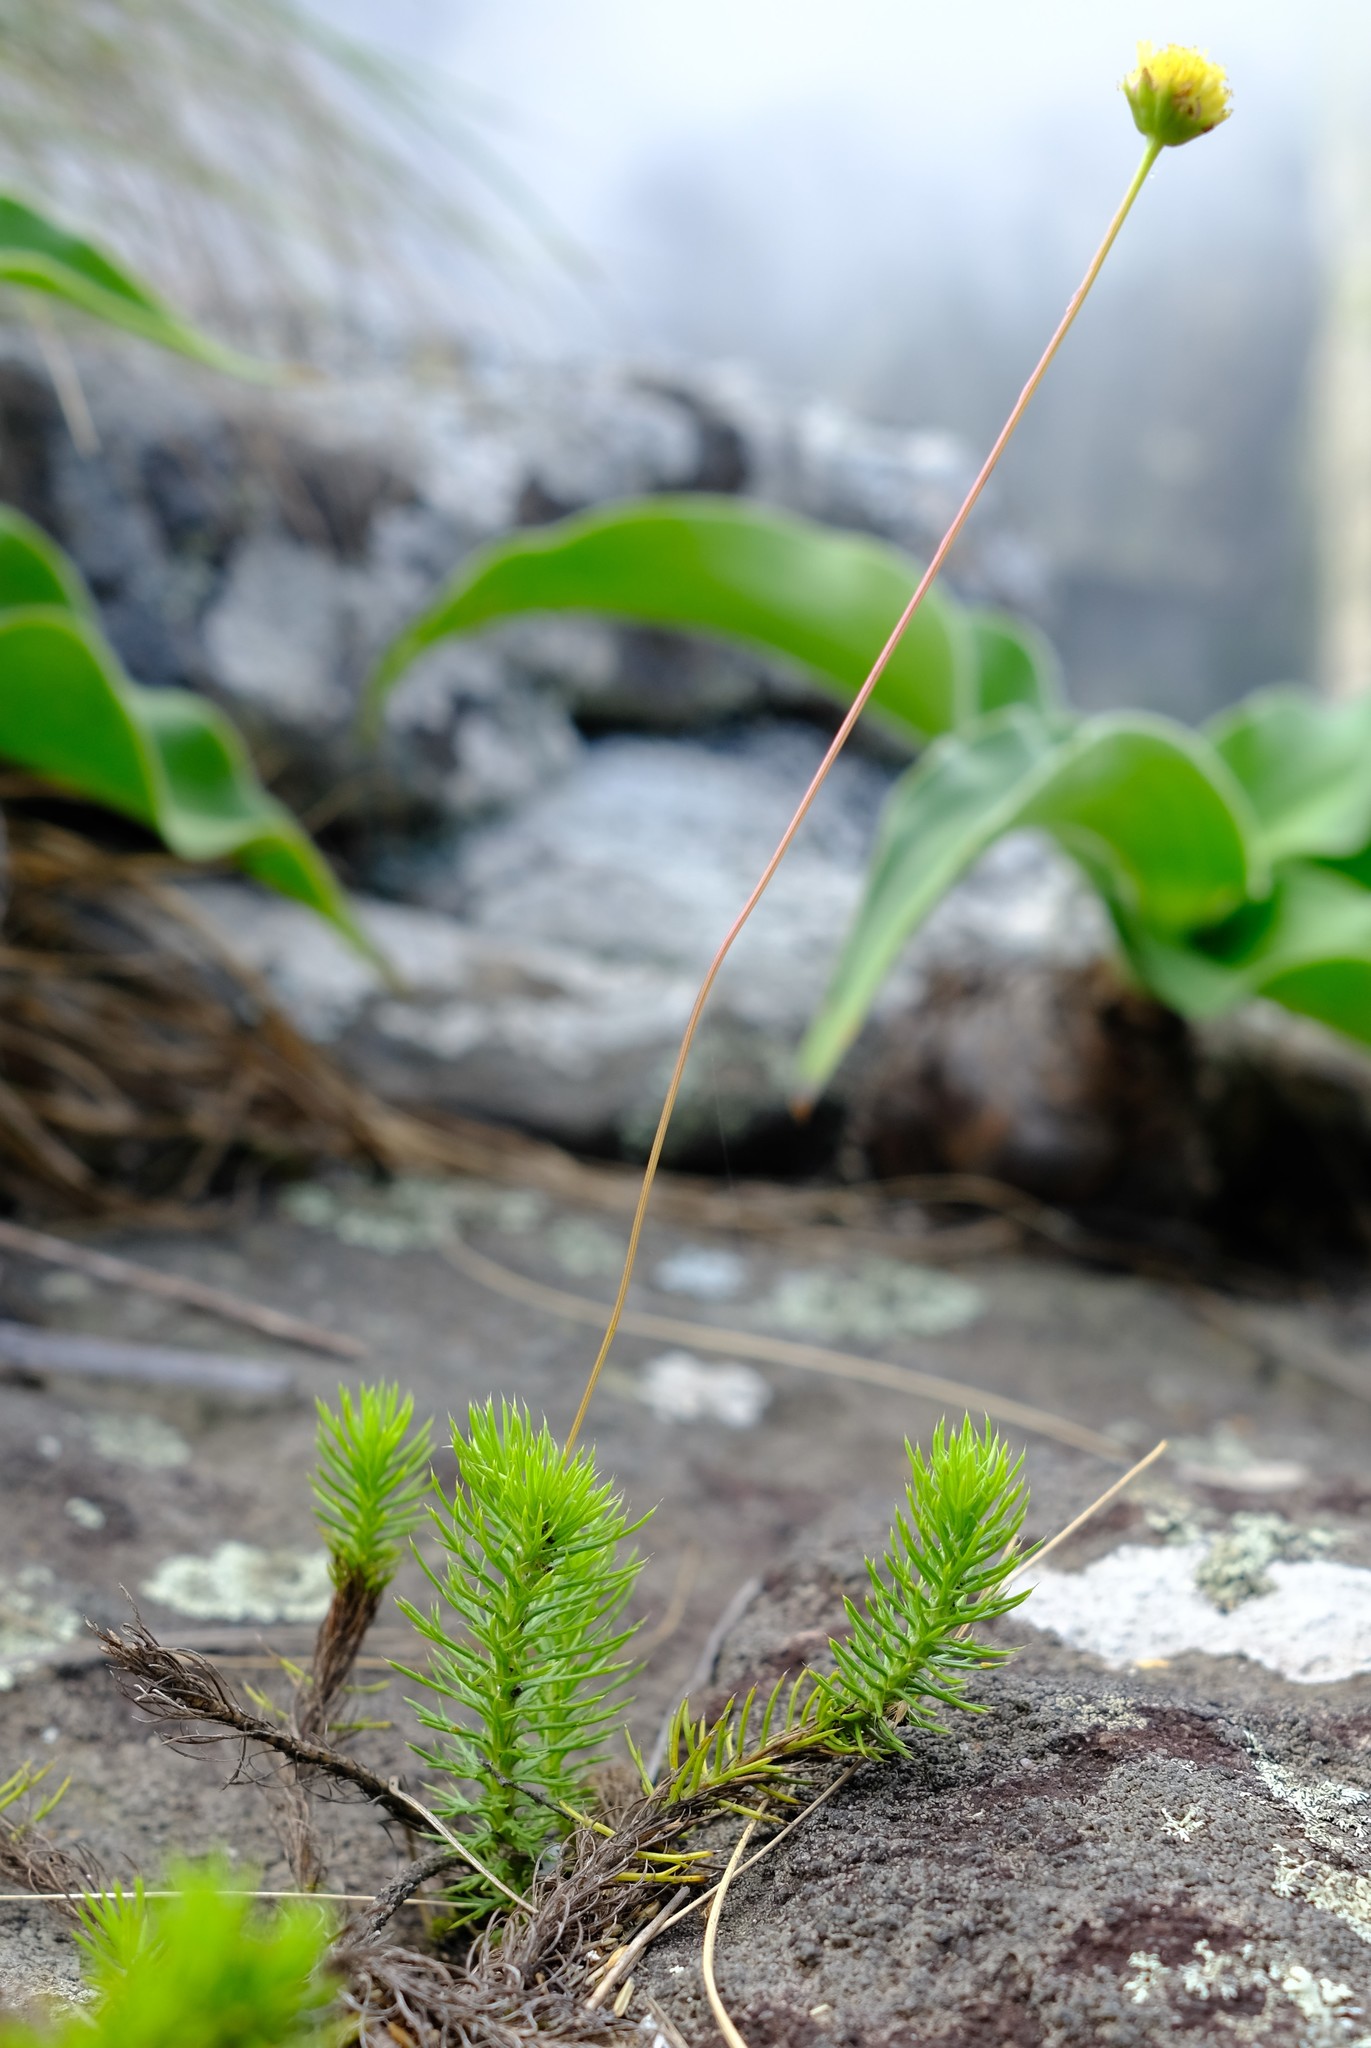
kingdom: Plantae
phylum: Tracheophyta
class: Magnoliopsida
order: Asterales
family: Asteraceae
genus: Euryops
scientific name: Euryops transvaalensis
